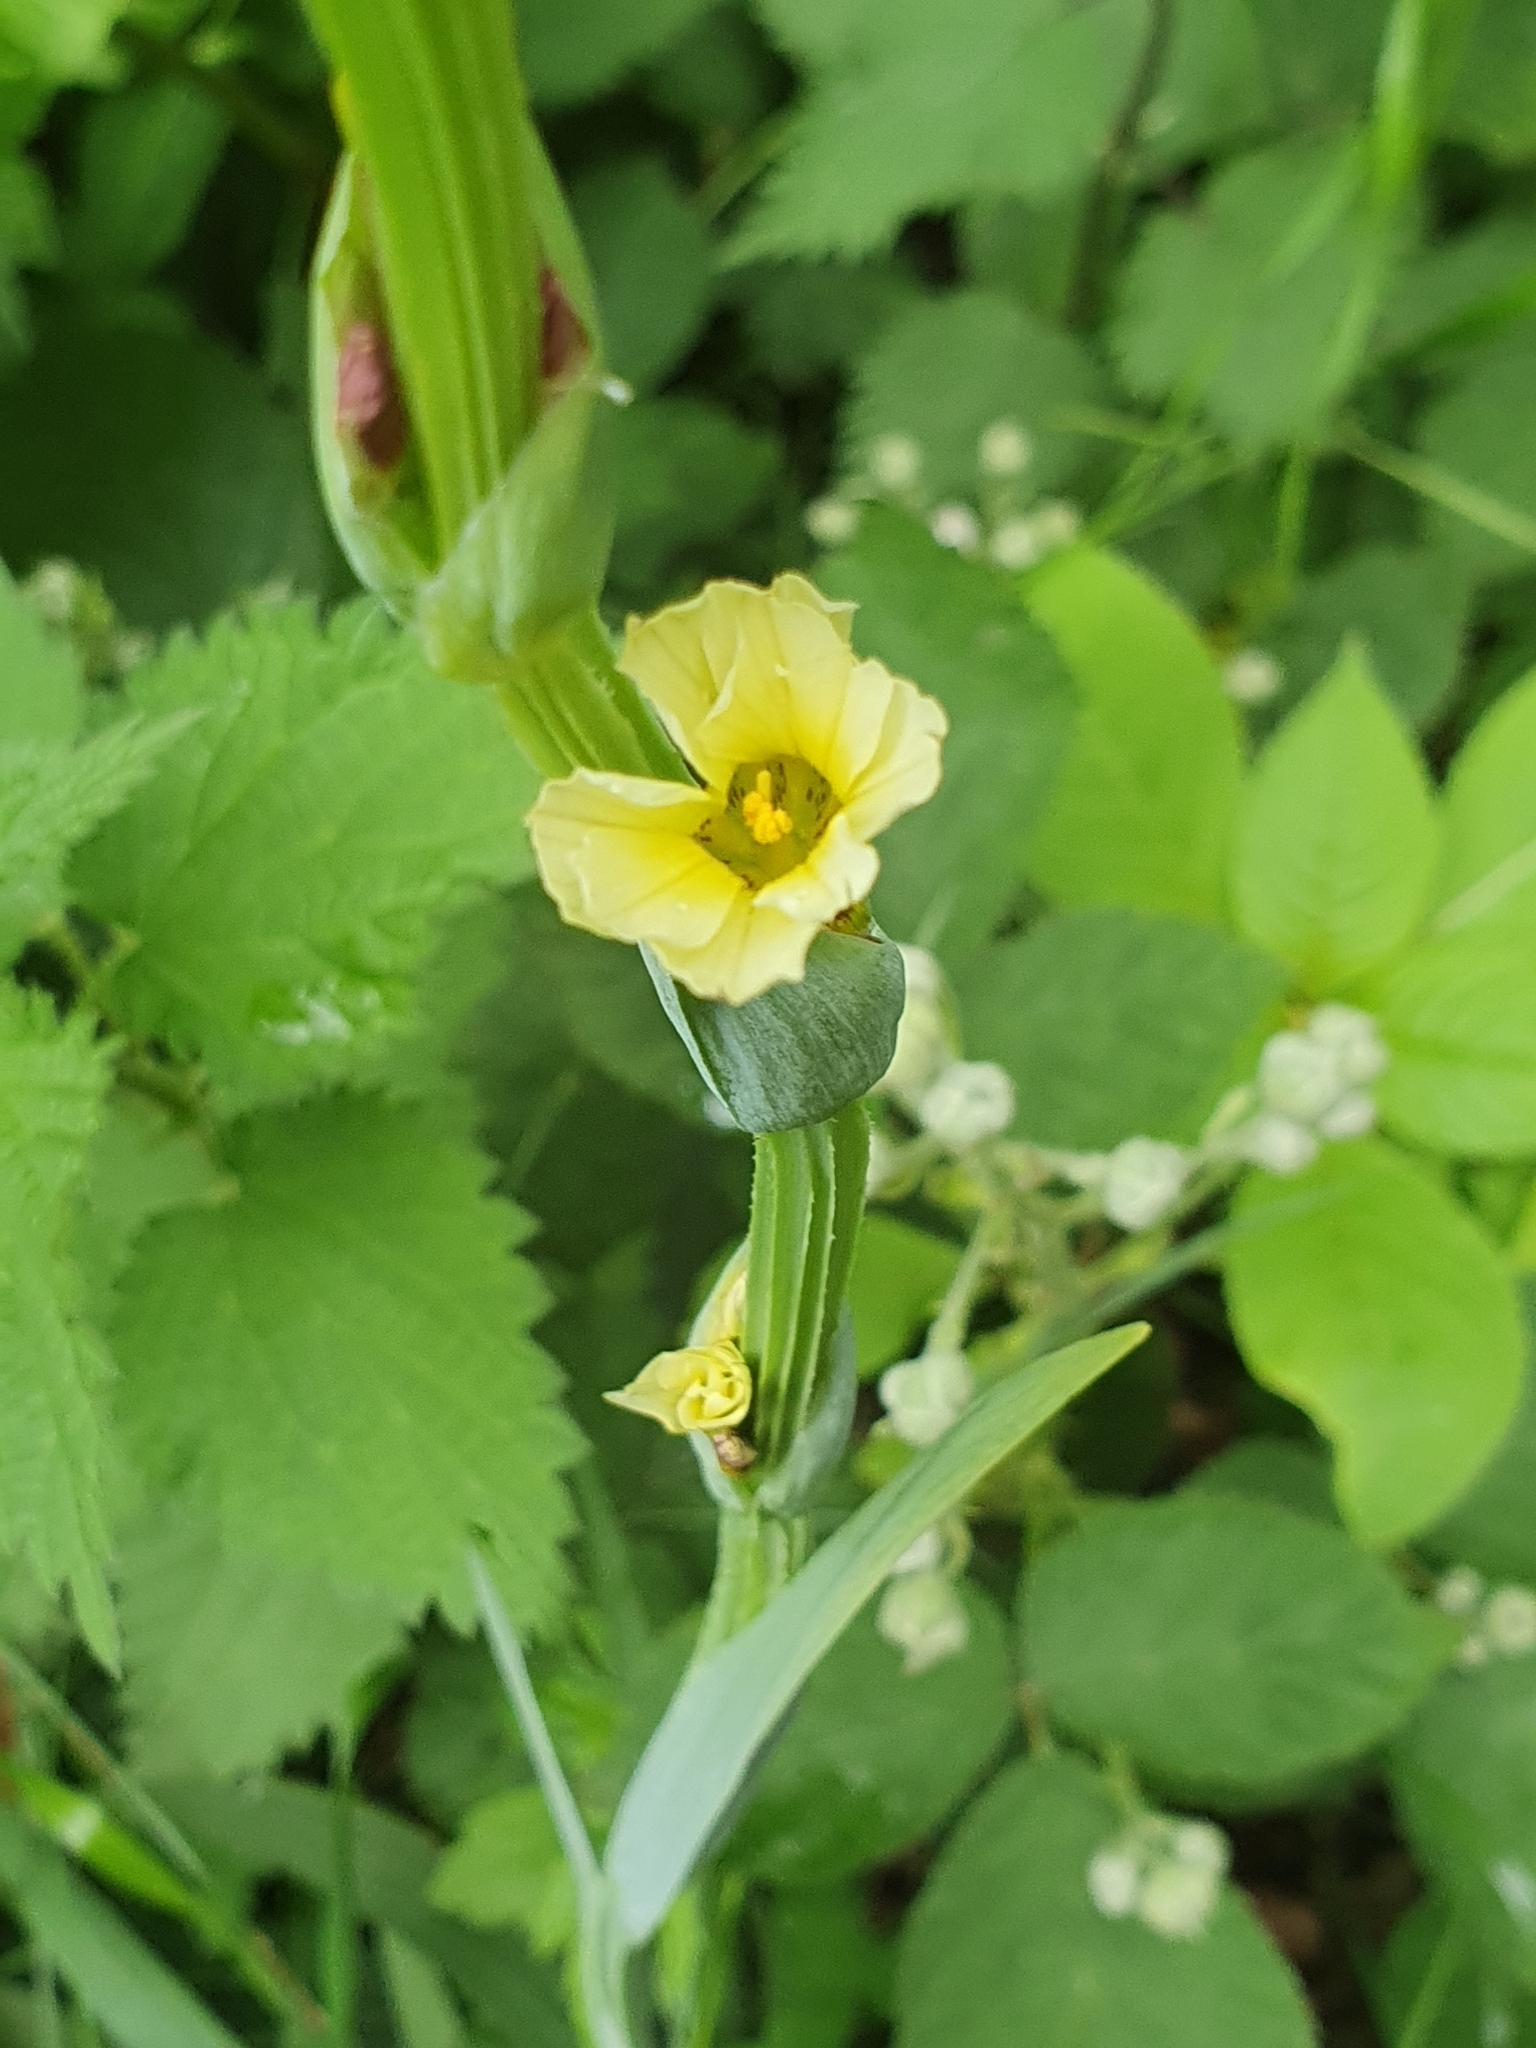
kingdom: Plantae
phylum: Tracheophyta
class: Liliopsida
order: Asparagales
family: Iridaceae
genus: Sisyrinchium
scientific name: Sisyrinchium striatum
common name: Pale yellow-eyed-grass
